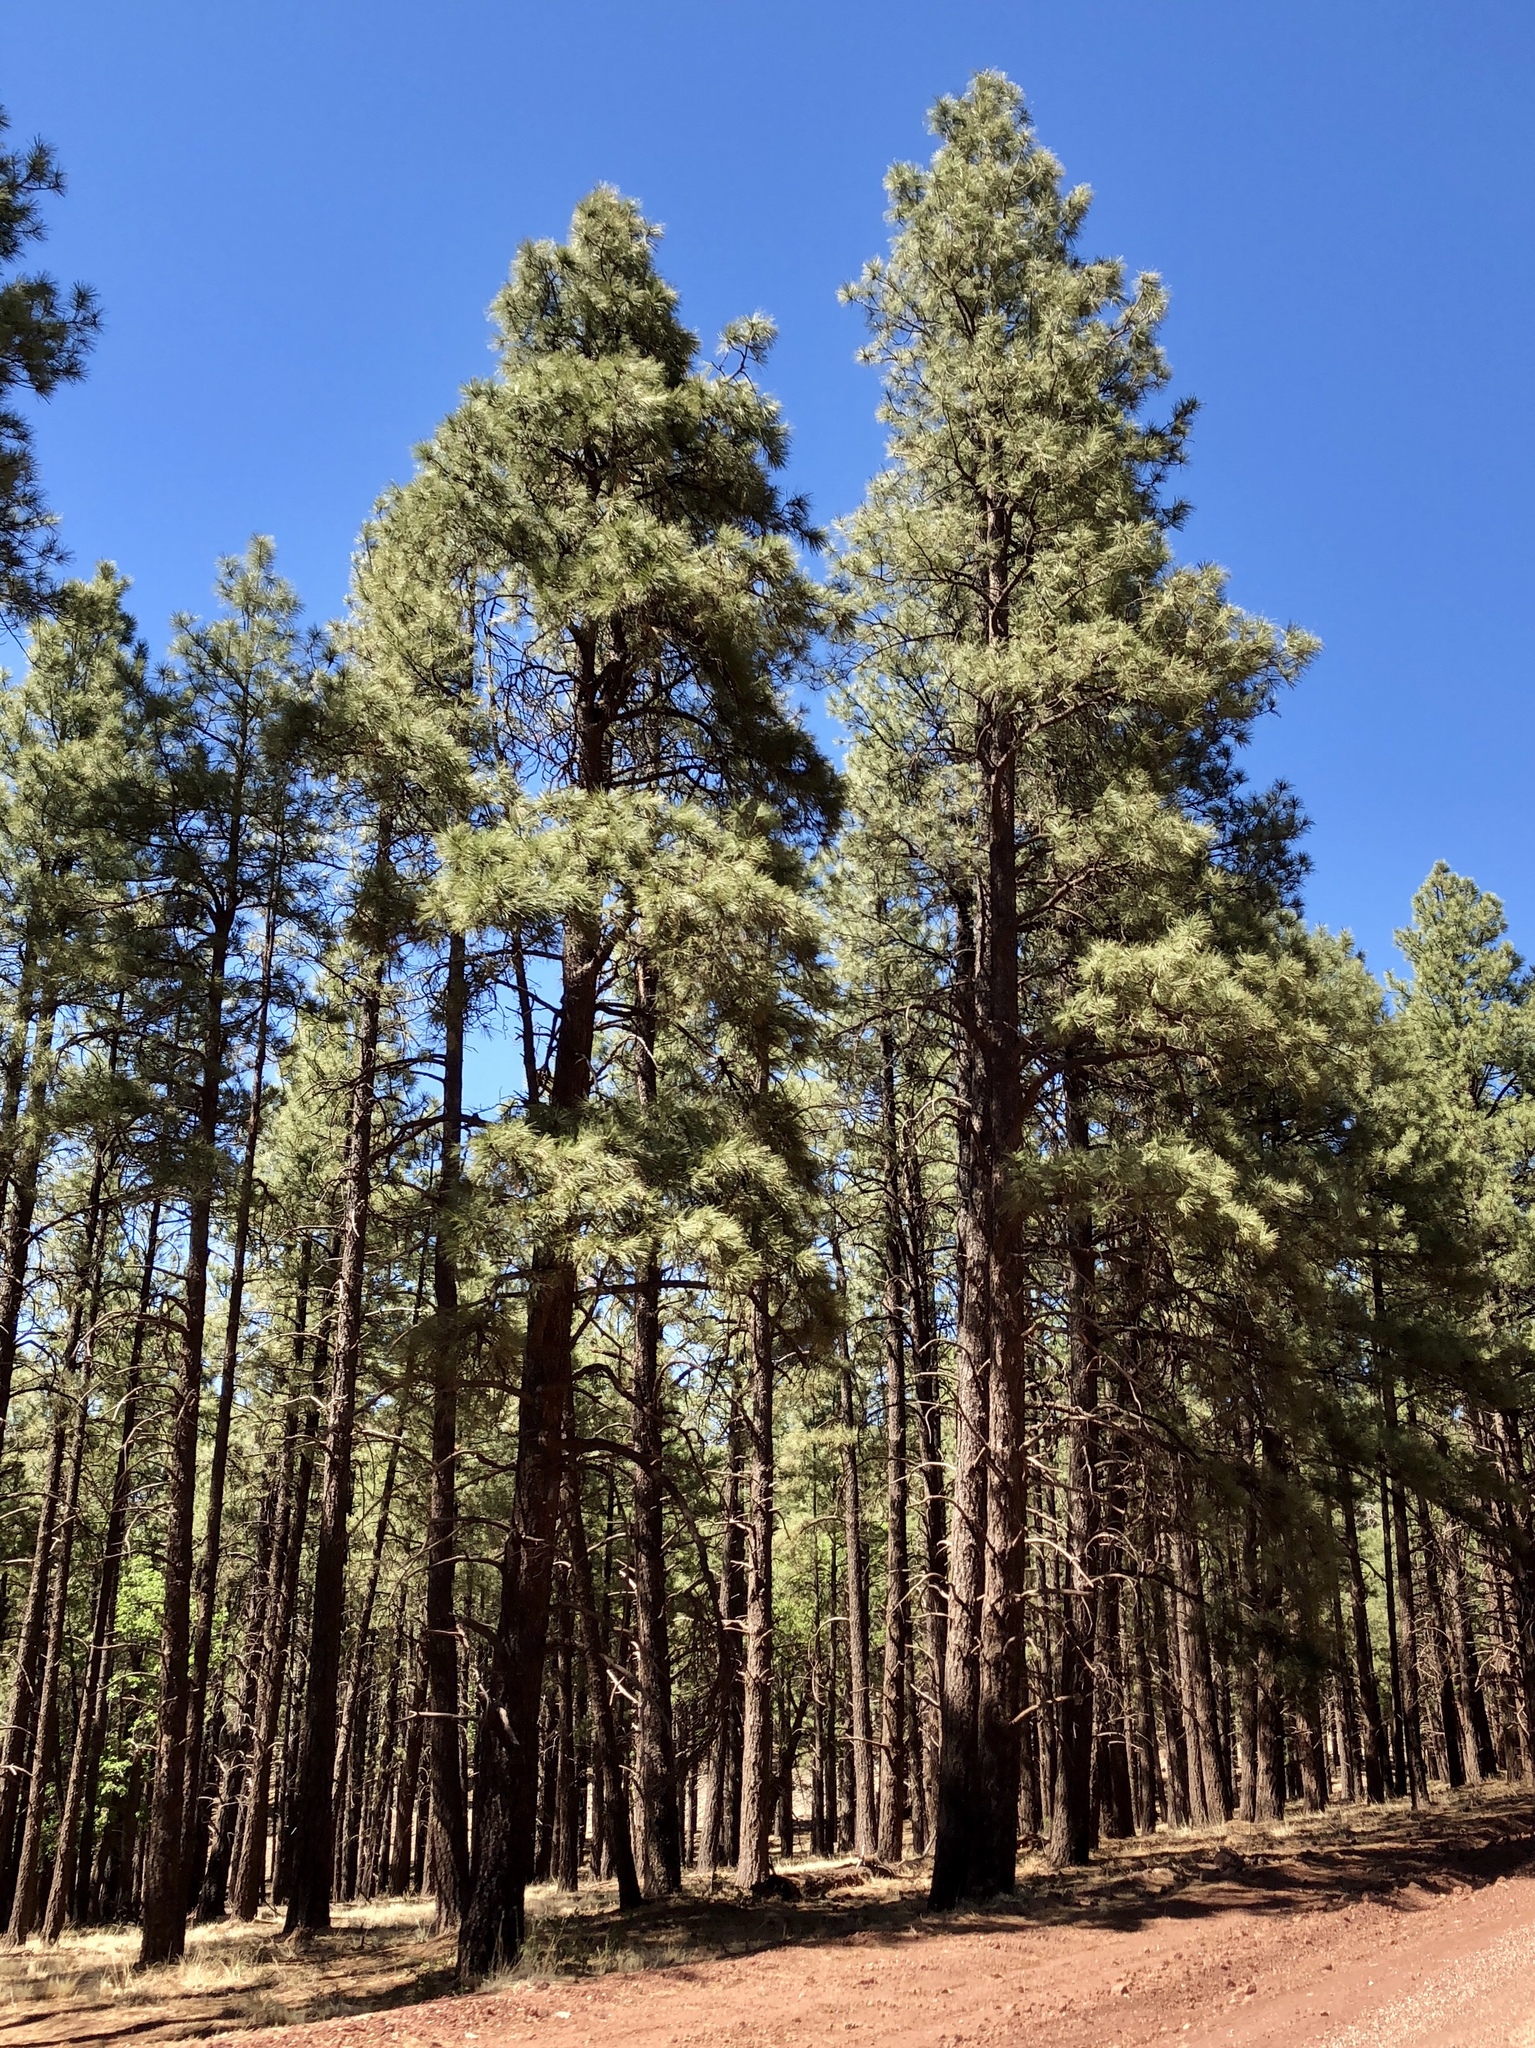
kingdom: Plantae
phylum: Tracheophyta
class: Pinopsida
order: Pinales
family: Pinaceae
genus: Pinus
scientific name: Pinus ponderosa
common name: Western yellow-pine
